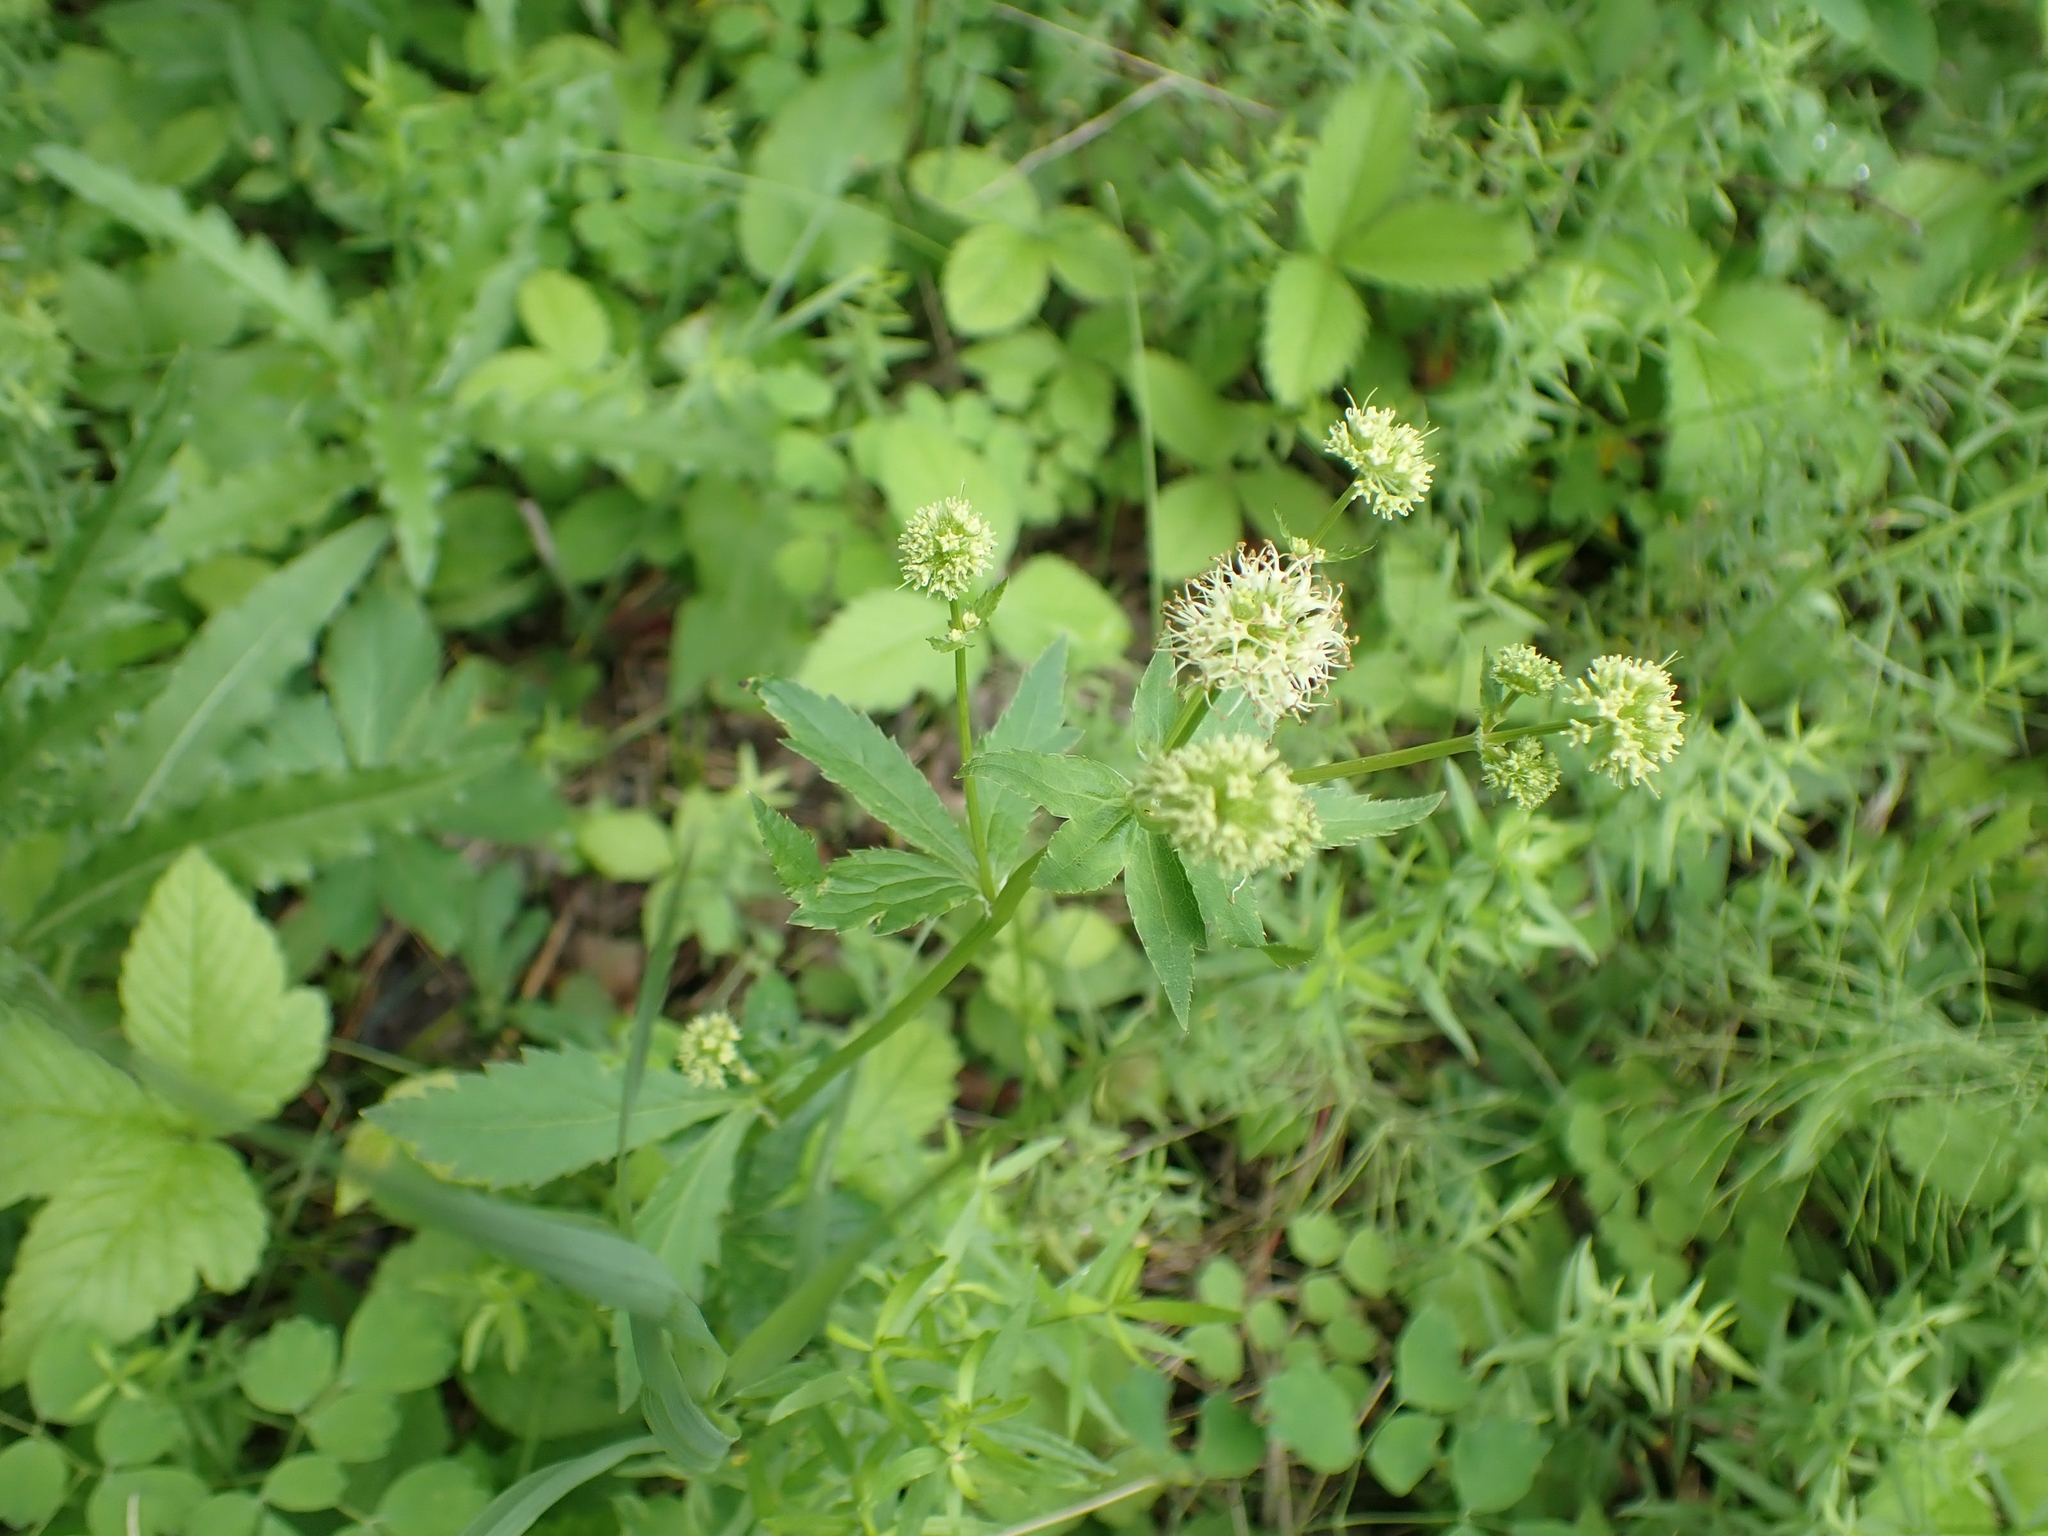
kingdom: Plantae
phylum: Tracheophyta
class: Magnoliopsida
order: Apiales
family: Apiaceae
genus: Sanicula
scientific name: Sanicula marilandica
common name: Black snakeroot
